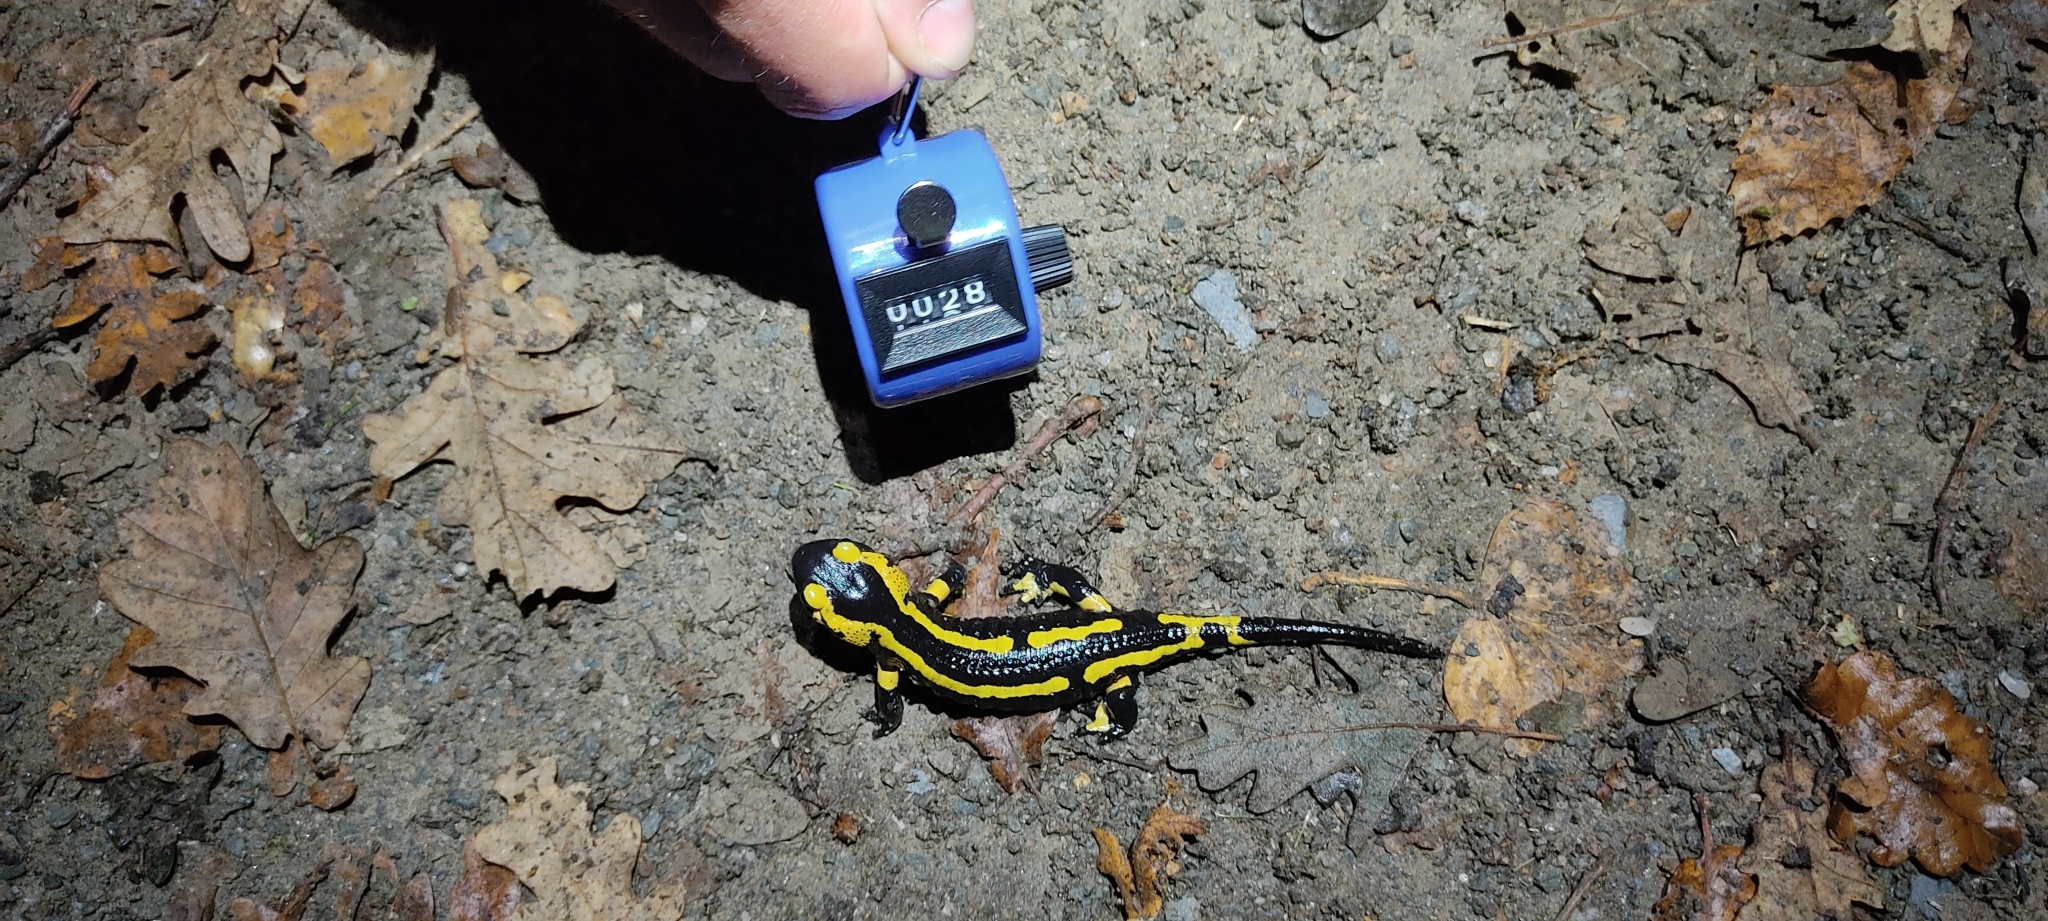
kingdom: Animalia
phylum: Chordata
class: Amphibia
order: Caudata
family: Salamandridae
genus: Salamandra
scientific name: Salamandra salamandra
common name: Fire salamander
